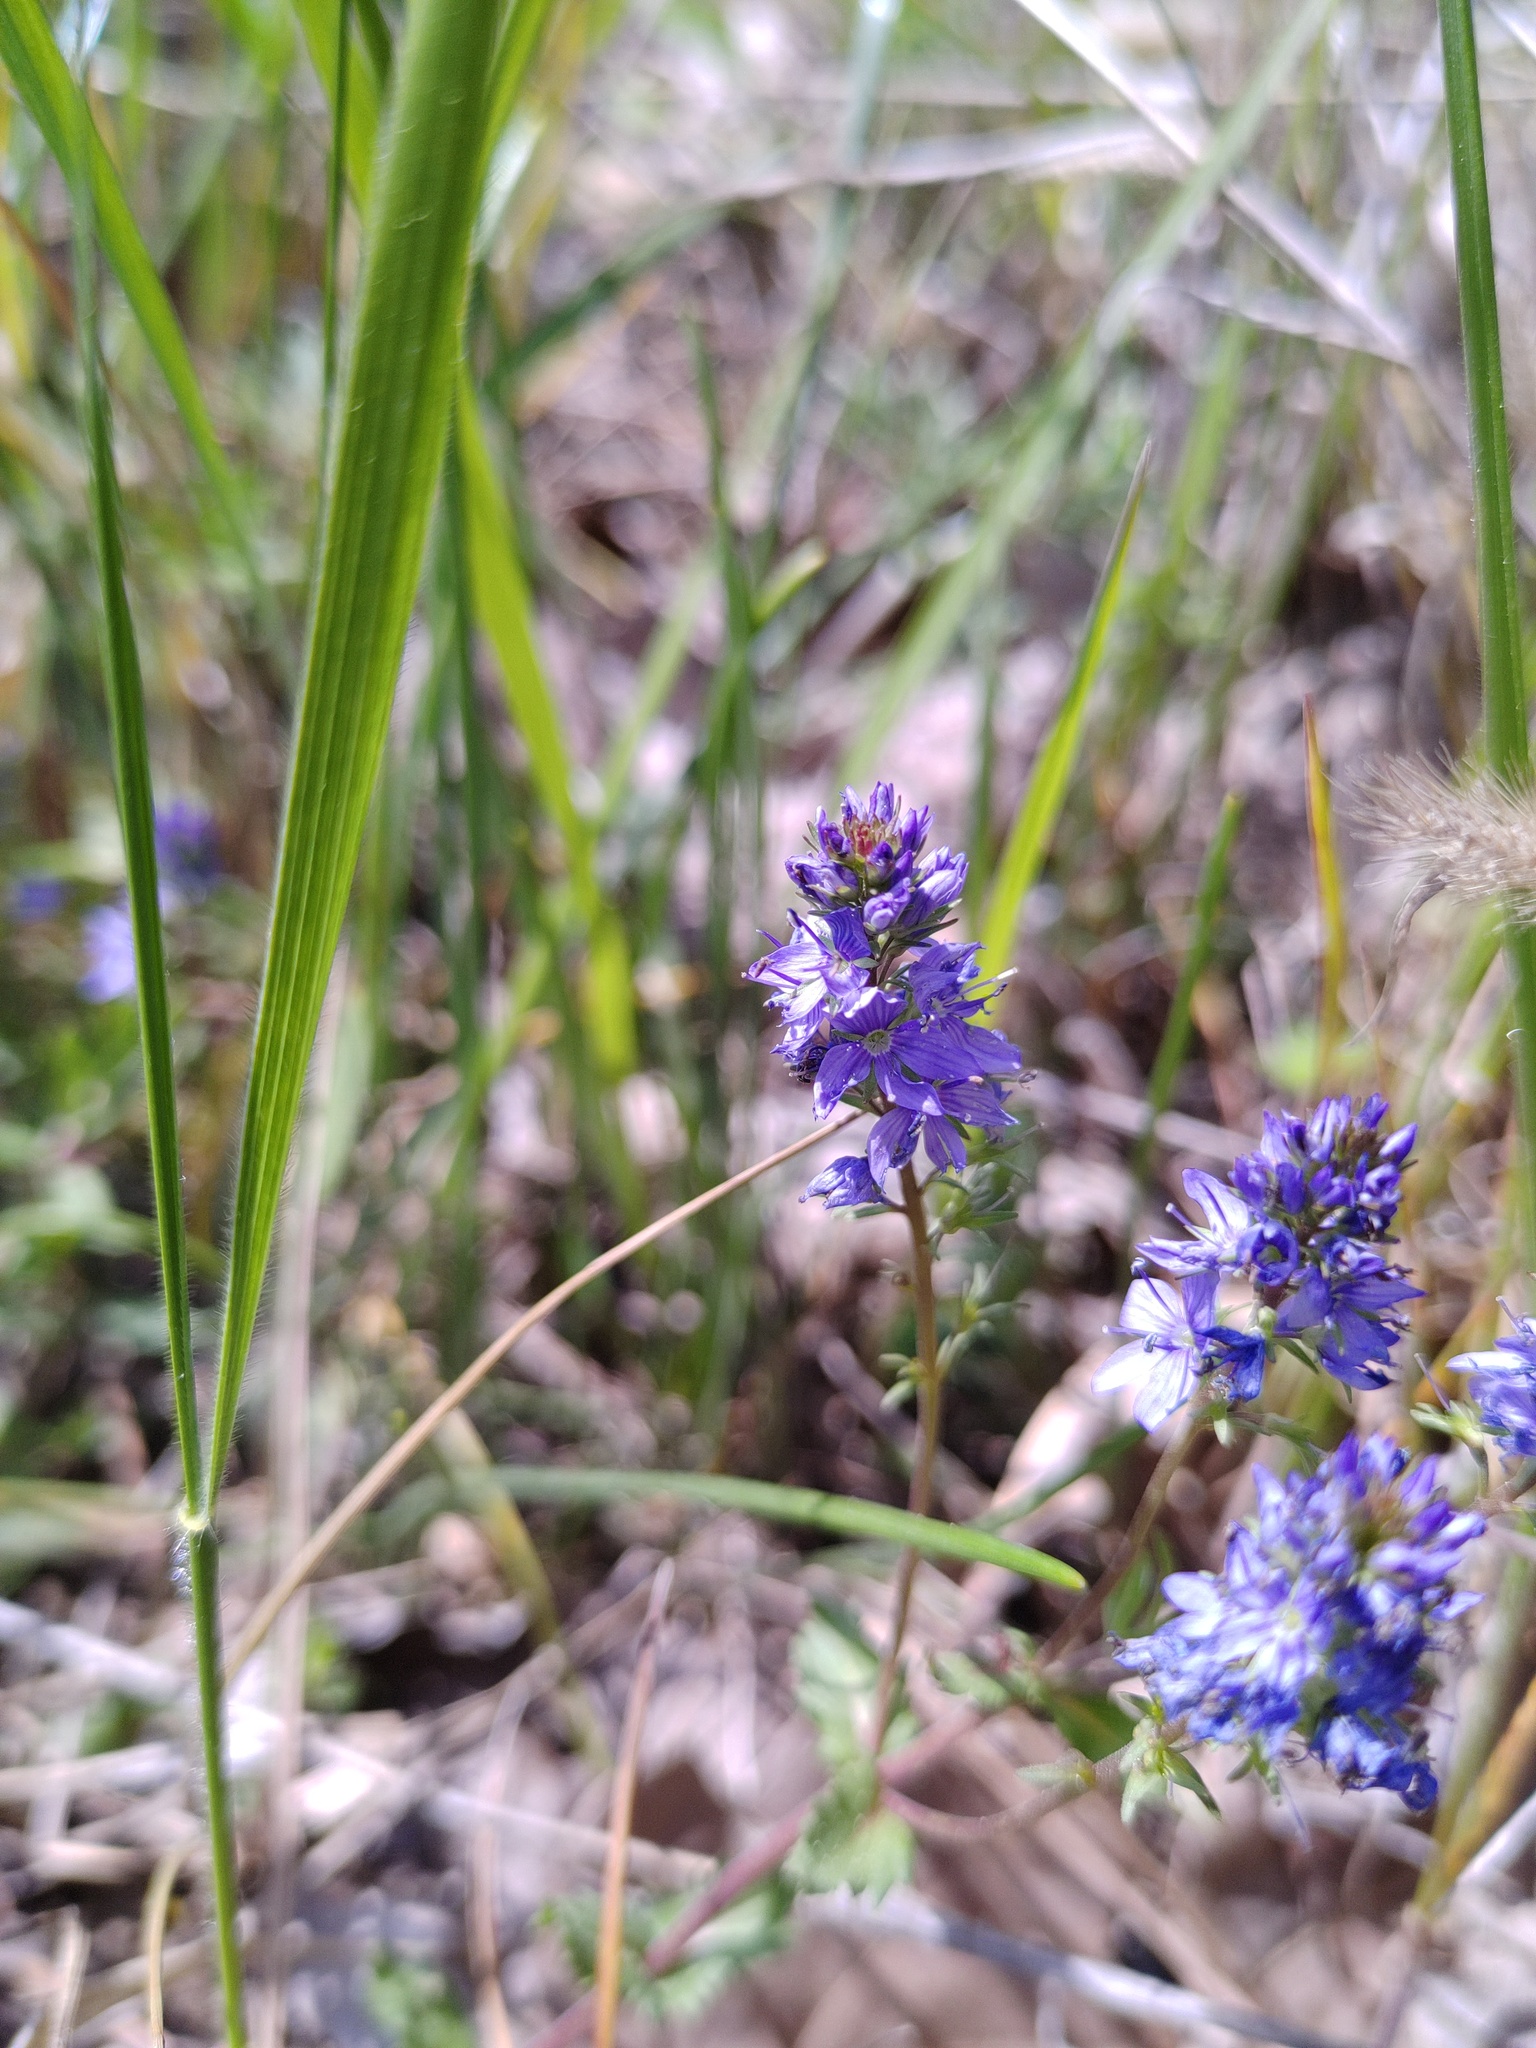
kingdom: Plantae
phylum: Tracheophyta
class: Magnoliopsida
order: Lamiales
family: Plantaginaceae
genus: Veronica
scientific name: Veronica prostrata
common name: Prostrate speedwell
